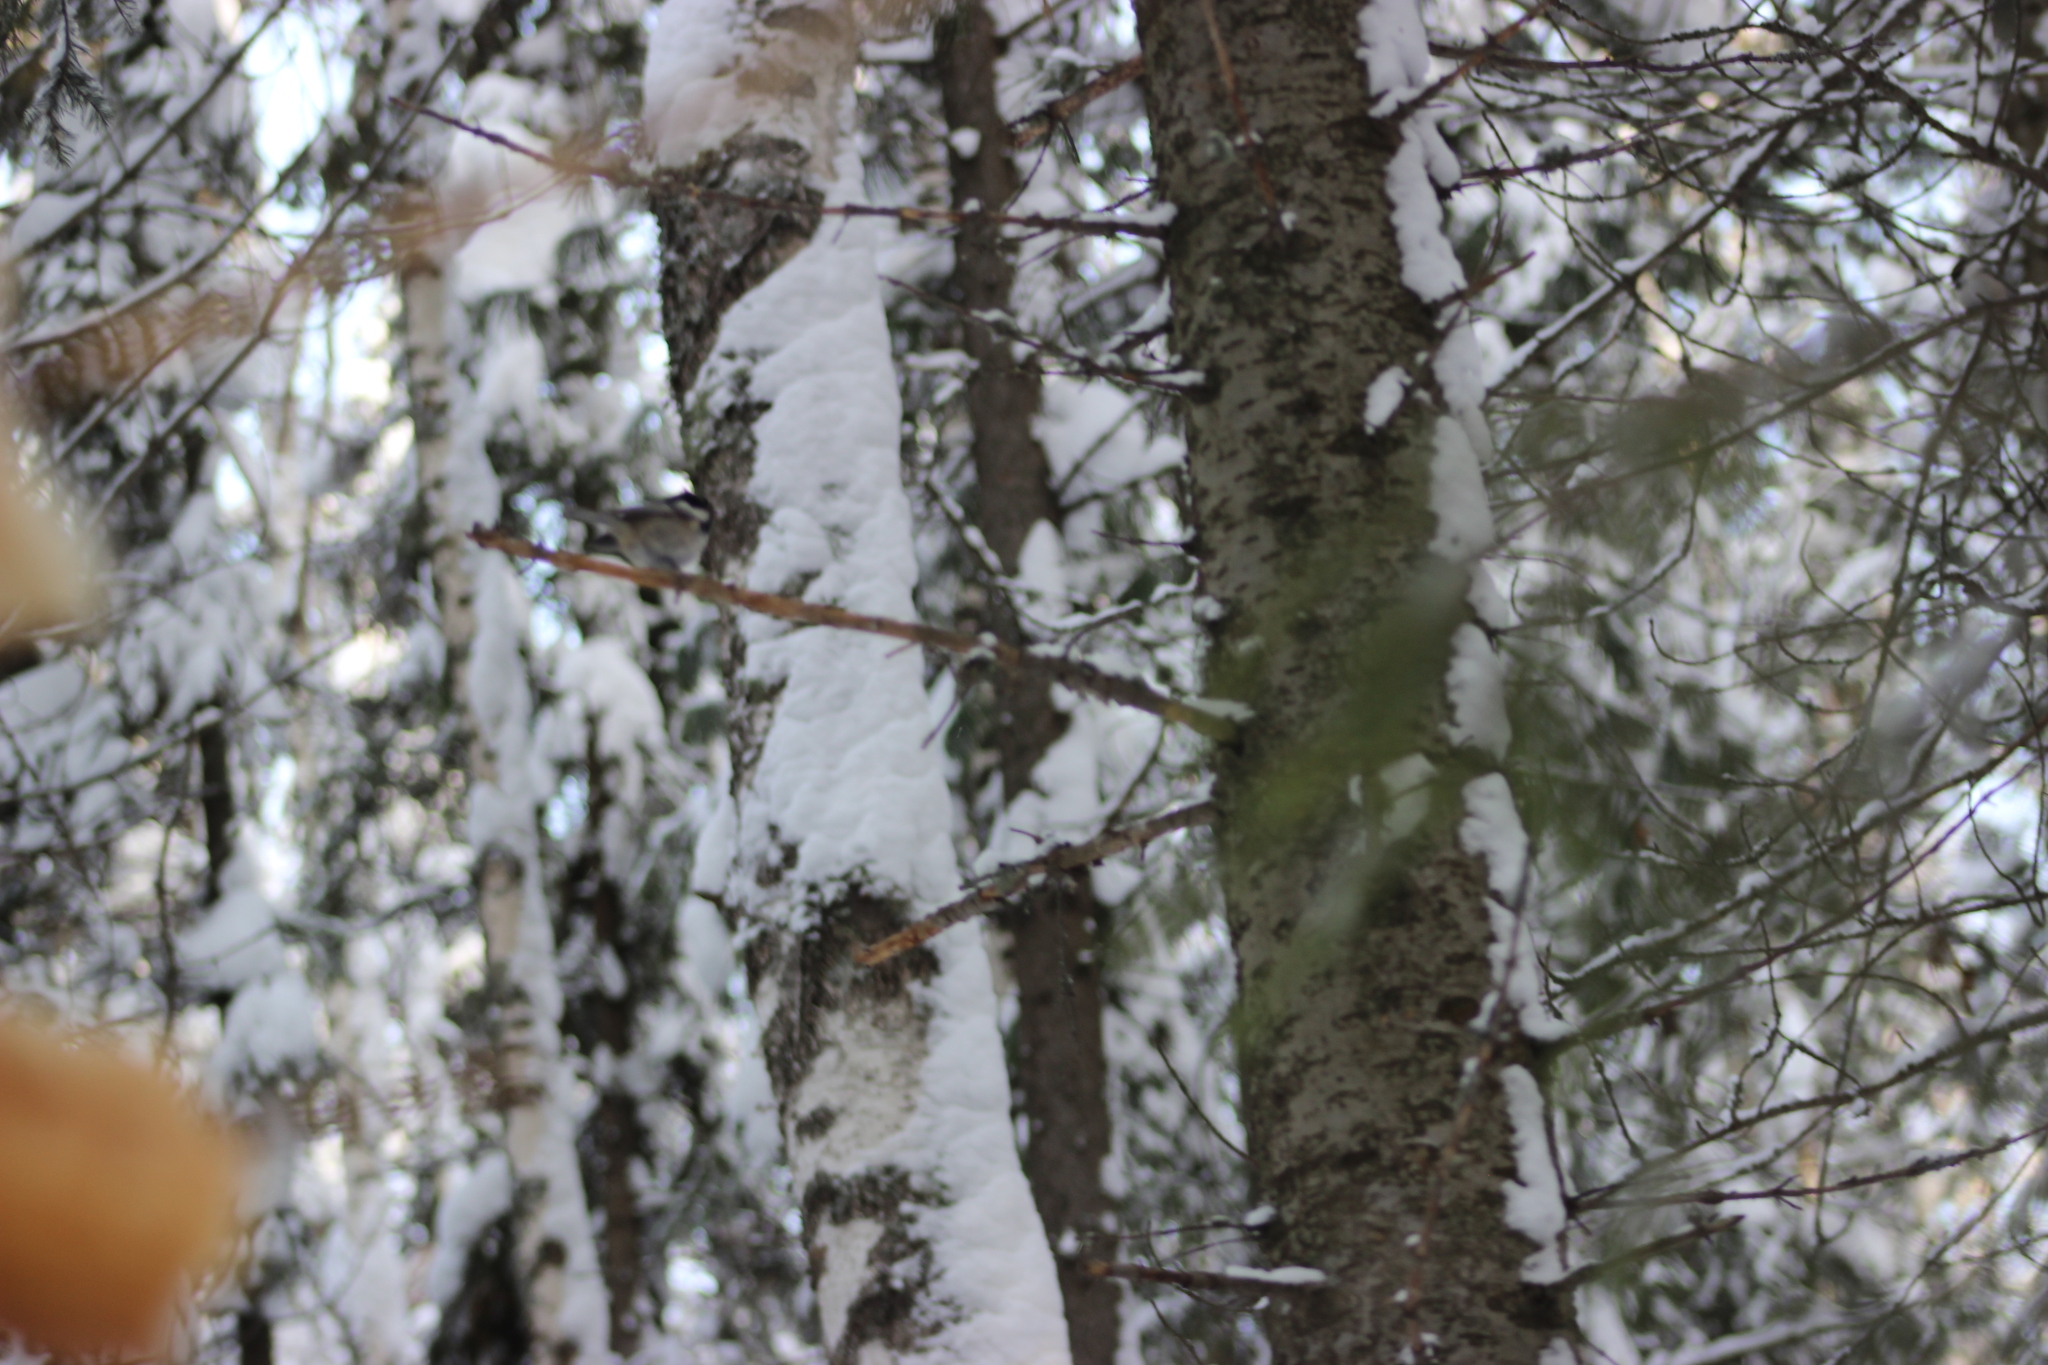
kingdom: Animalia
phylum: Chordata
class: Aves
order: Passeriformes
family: Paridae
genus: Periparus
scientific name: Periparus ater
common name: Coal tit
